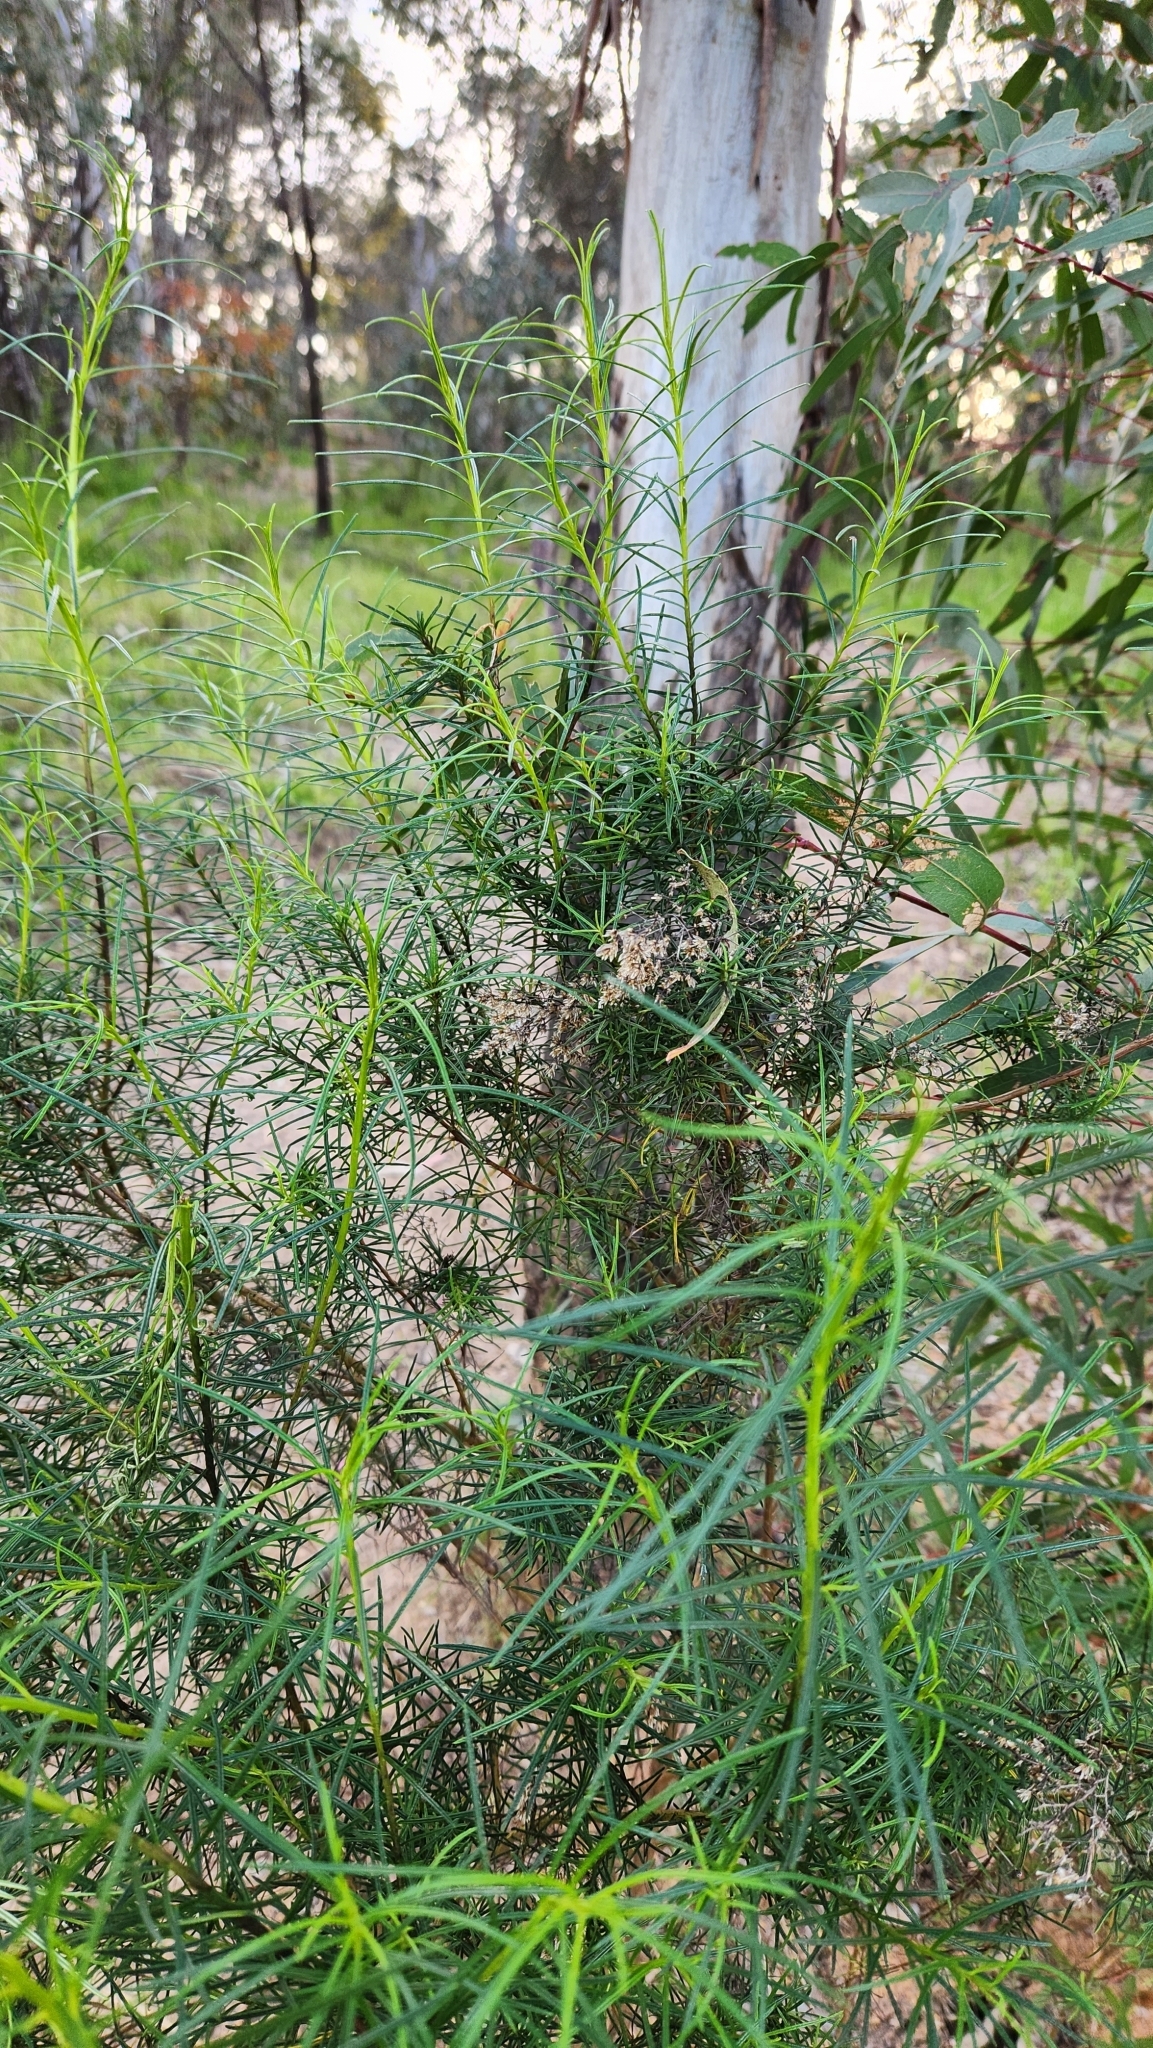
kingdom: Plantae
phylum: Tracheophyta
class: Magnoliopsida
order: Asterales
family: Asteraceae
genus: Cassinia
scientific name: Cassinia longifolia
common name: Longleaf-dogwood
